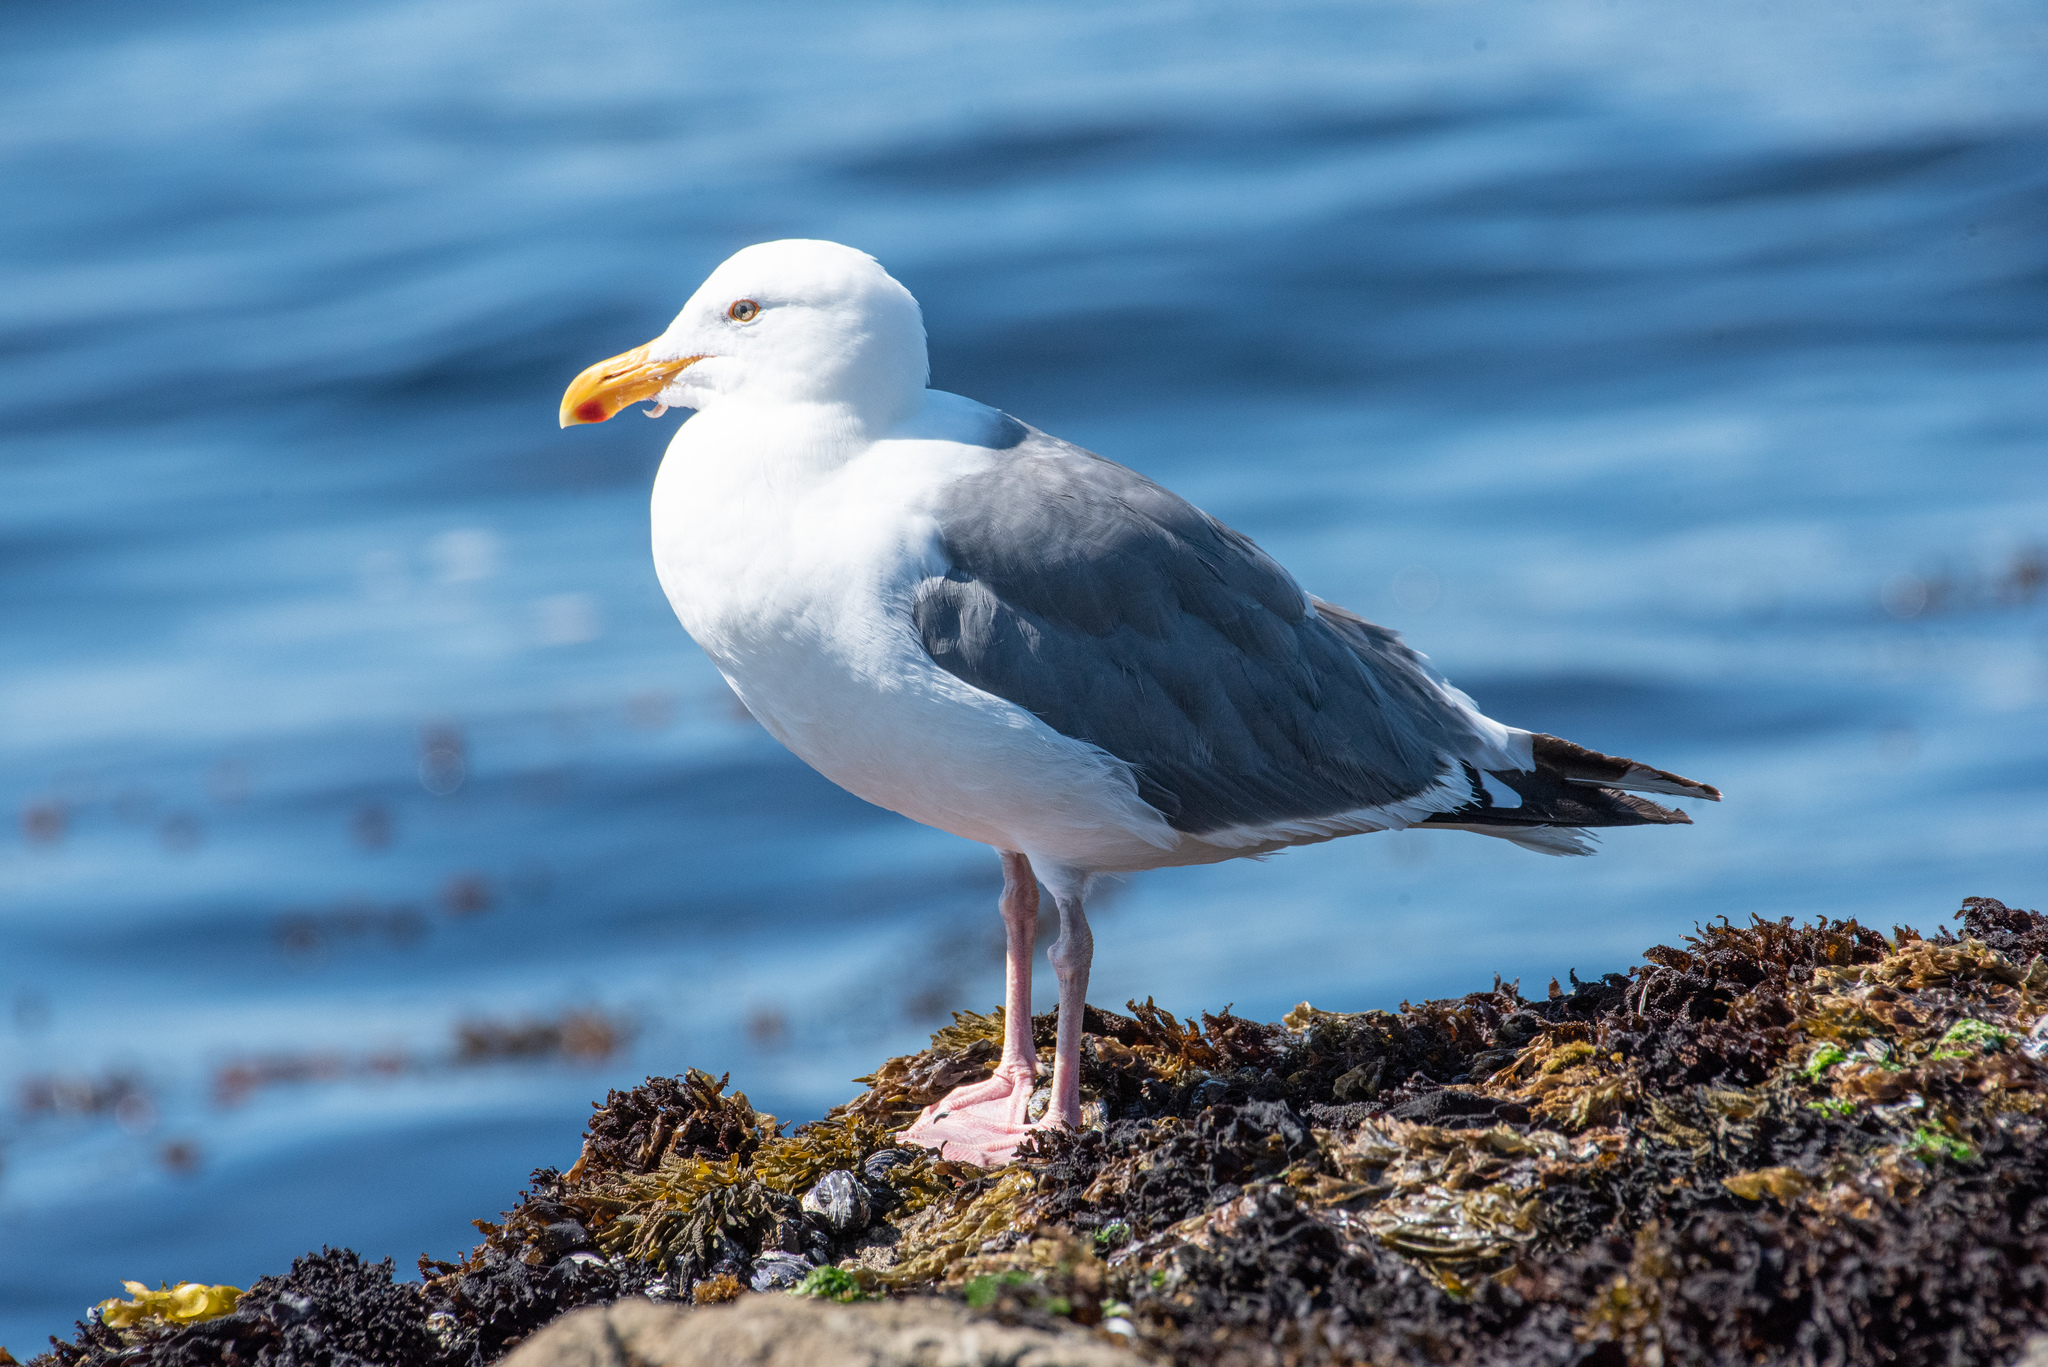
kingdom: Animalia
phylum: Chordata
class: Aves
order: Charadriiformes
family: Laridae
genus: Larus
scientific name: Larus occidentalis
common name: Western gull
